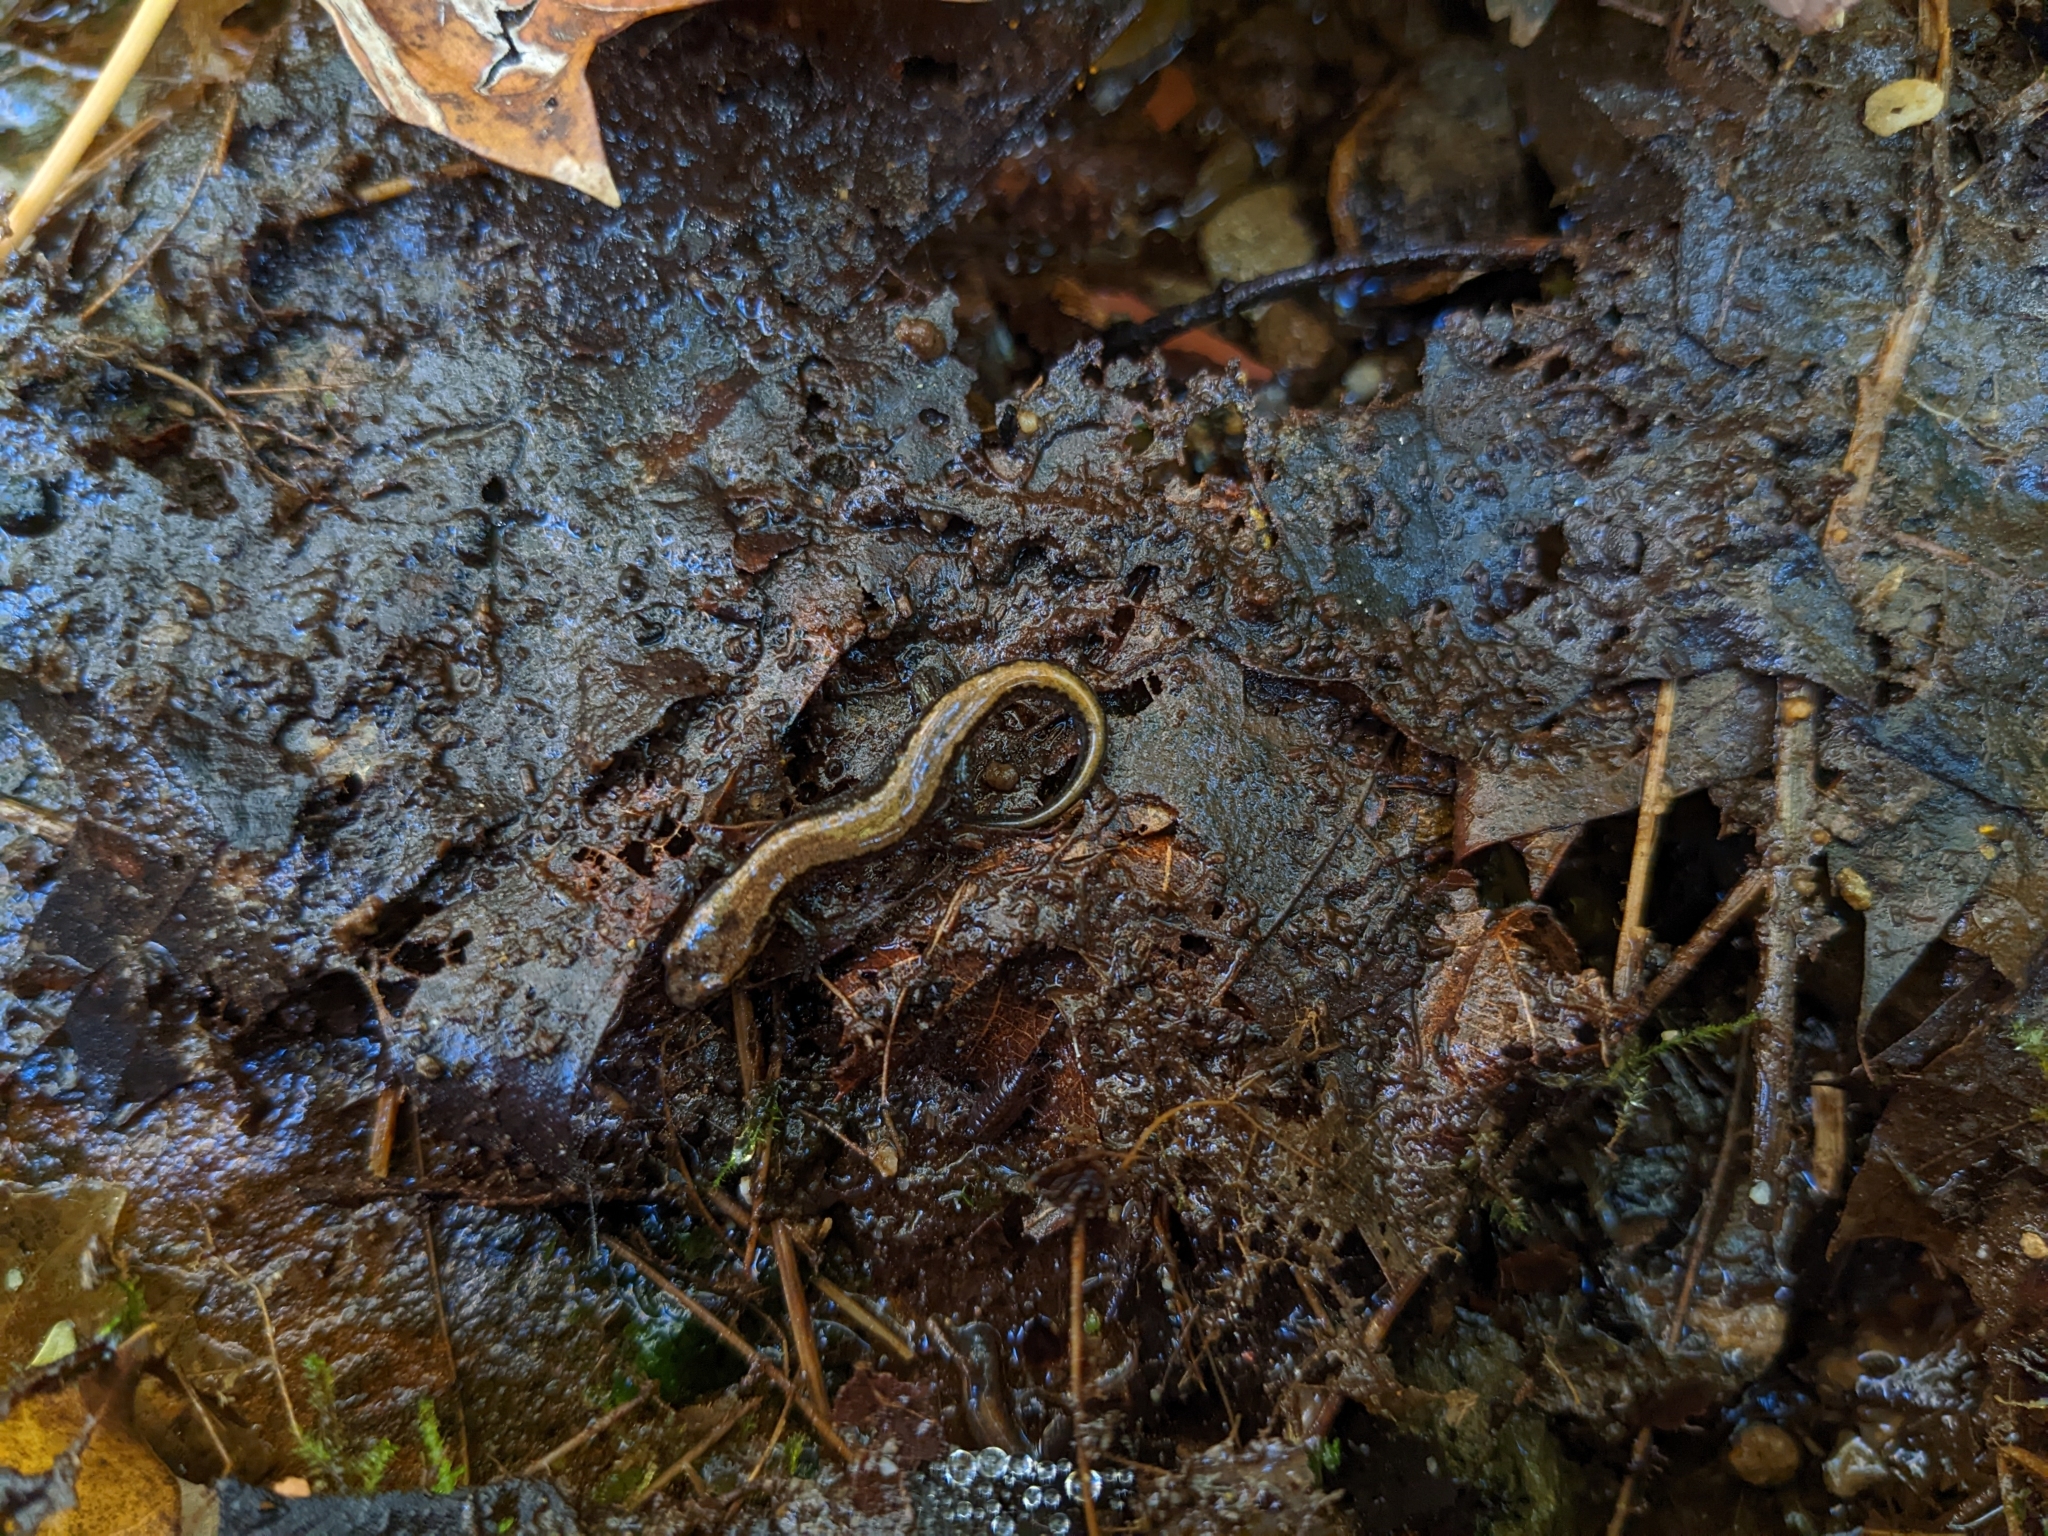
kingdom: Animalia
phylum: Chordata
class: Amphibia
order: Caudata
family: Plethodontidae
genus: Desmognathus
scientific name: Desmognathus ochrophaeus
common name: Allegheny mountain dusky salamander
